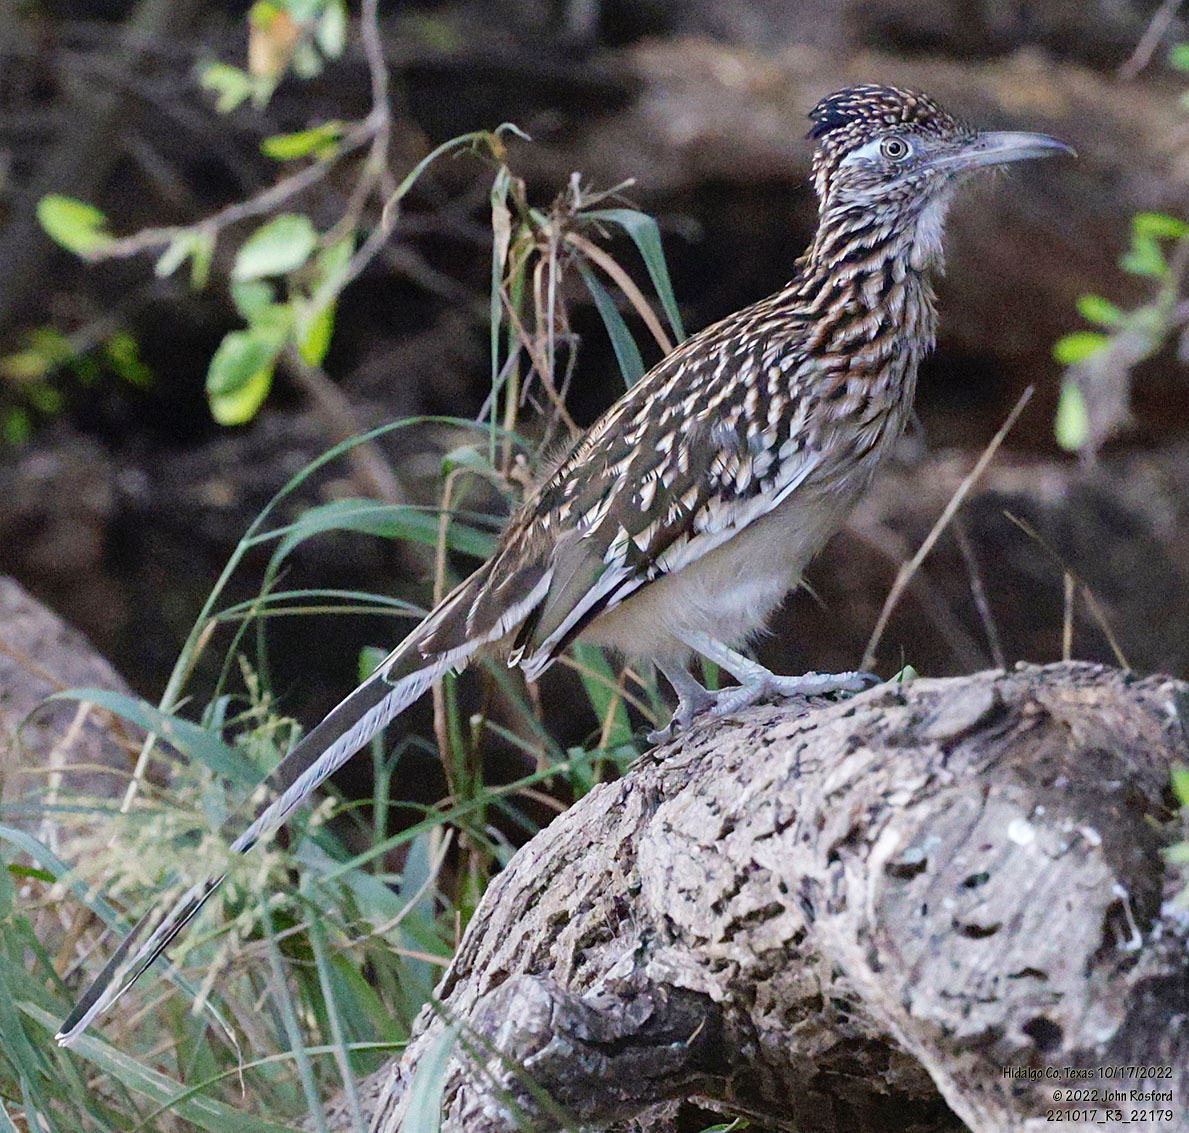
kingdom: Animalia
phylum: Chordata
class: Aves
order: Cuculiformes
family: Cuculidae
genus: Geococcyx
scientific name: Geococcyx californianus
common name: Greater roadrunner
